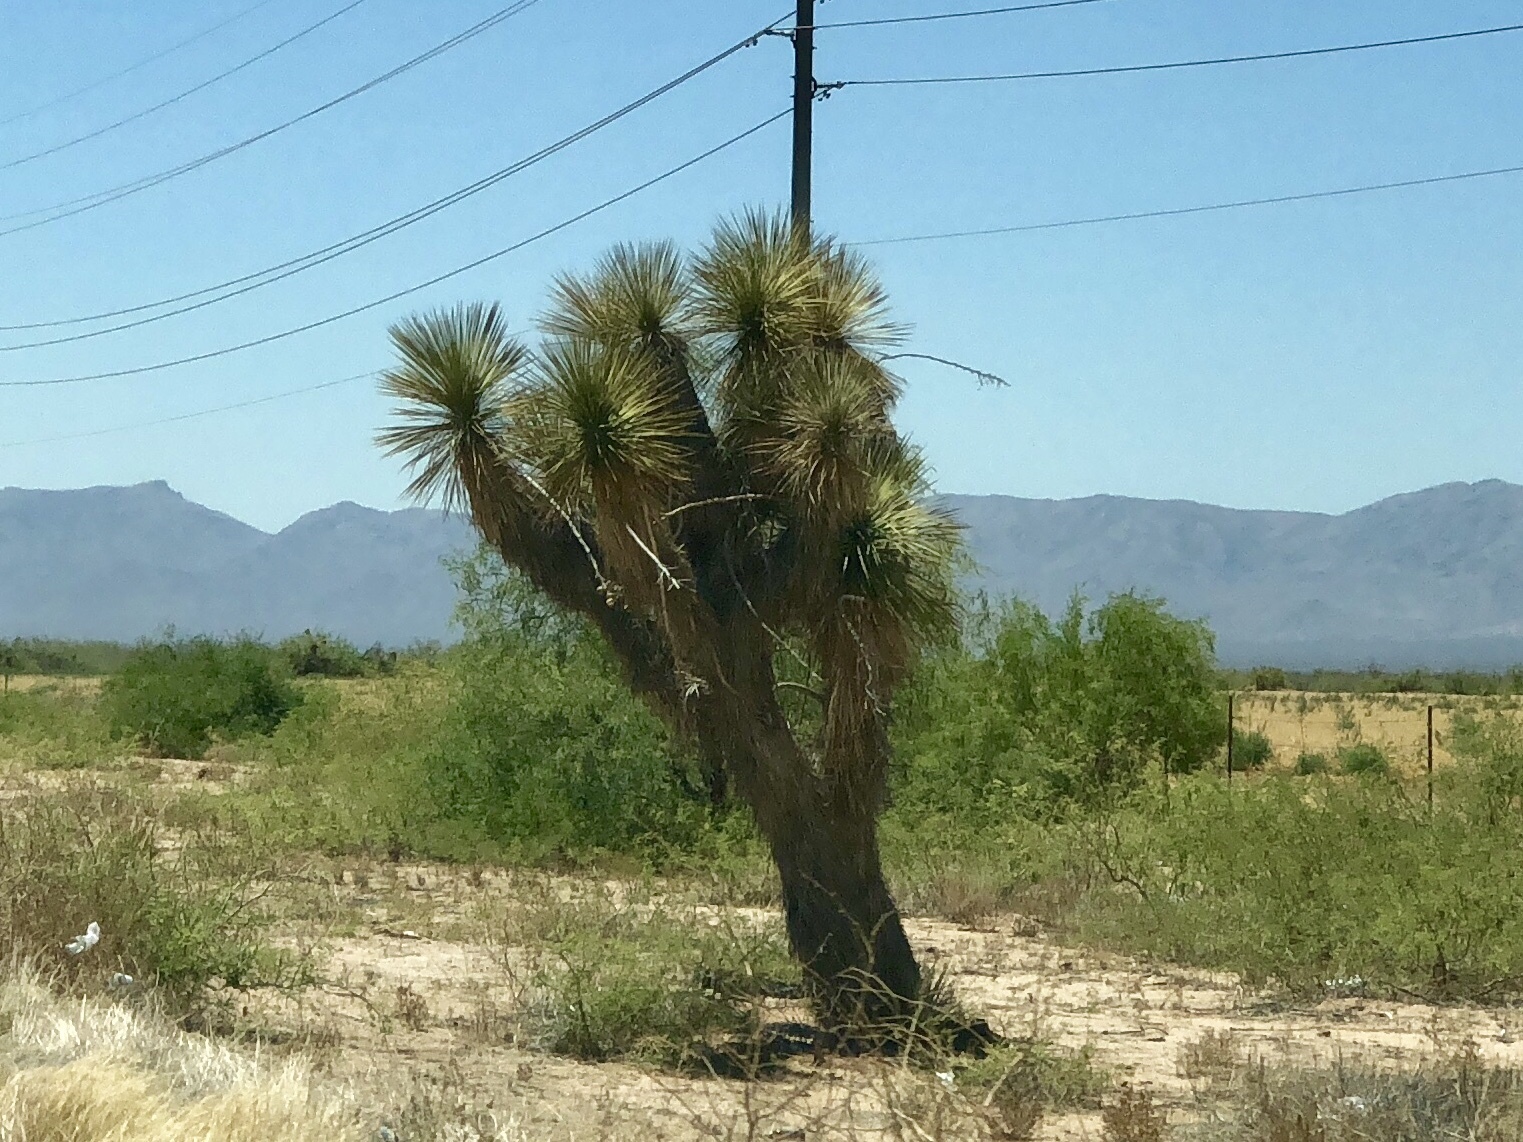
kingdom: Plantae
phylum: Tracheophyta
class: Liliopsida
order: Asparagales
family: Asparagaceae
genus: Yucca
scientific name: Yucca elata
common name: Palmella
